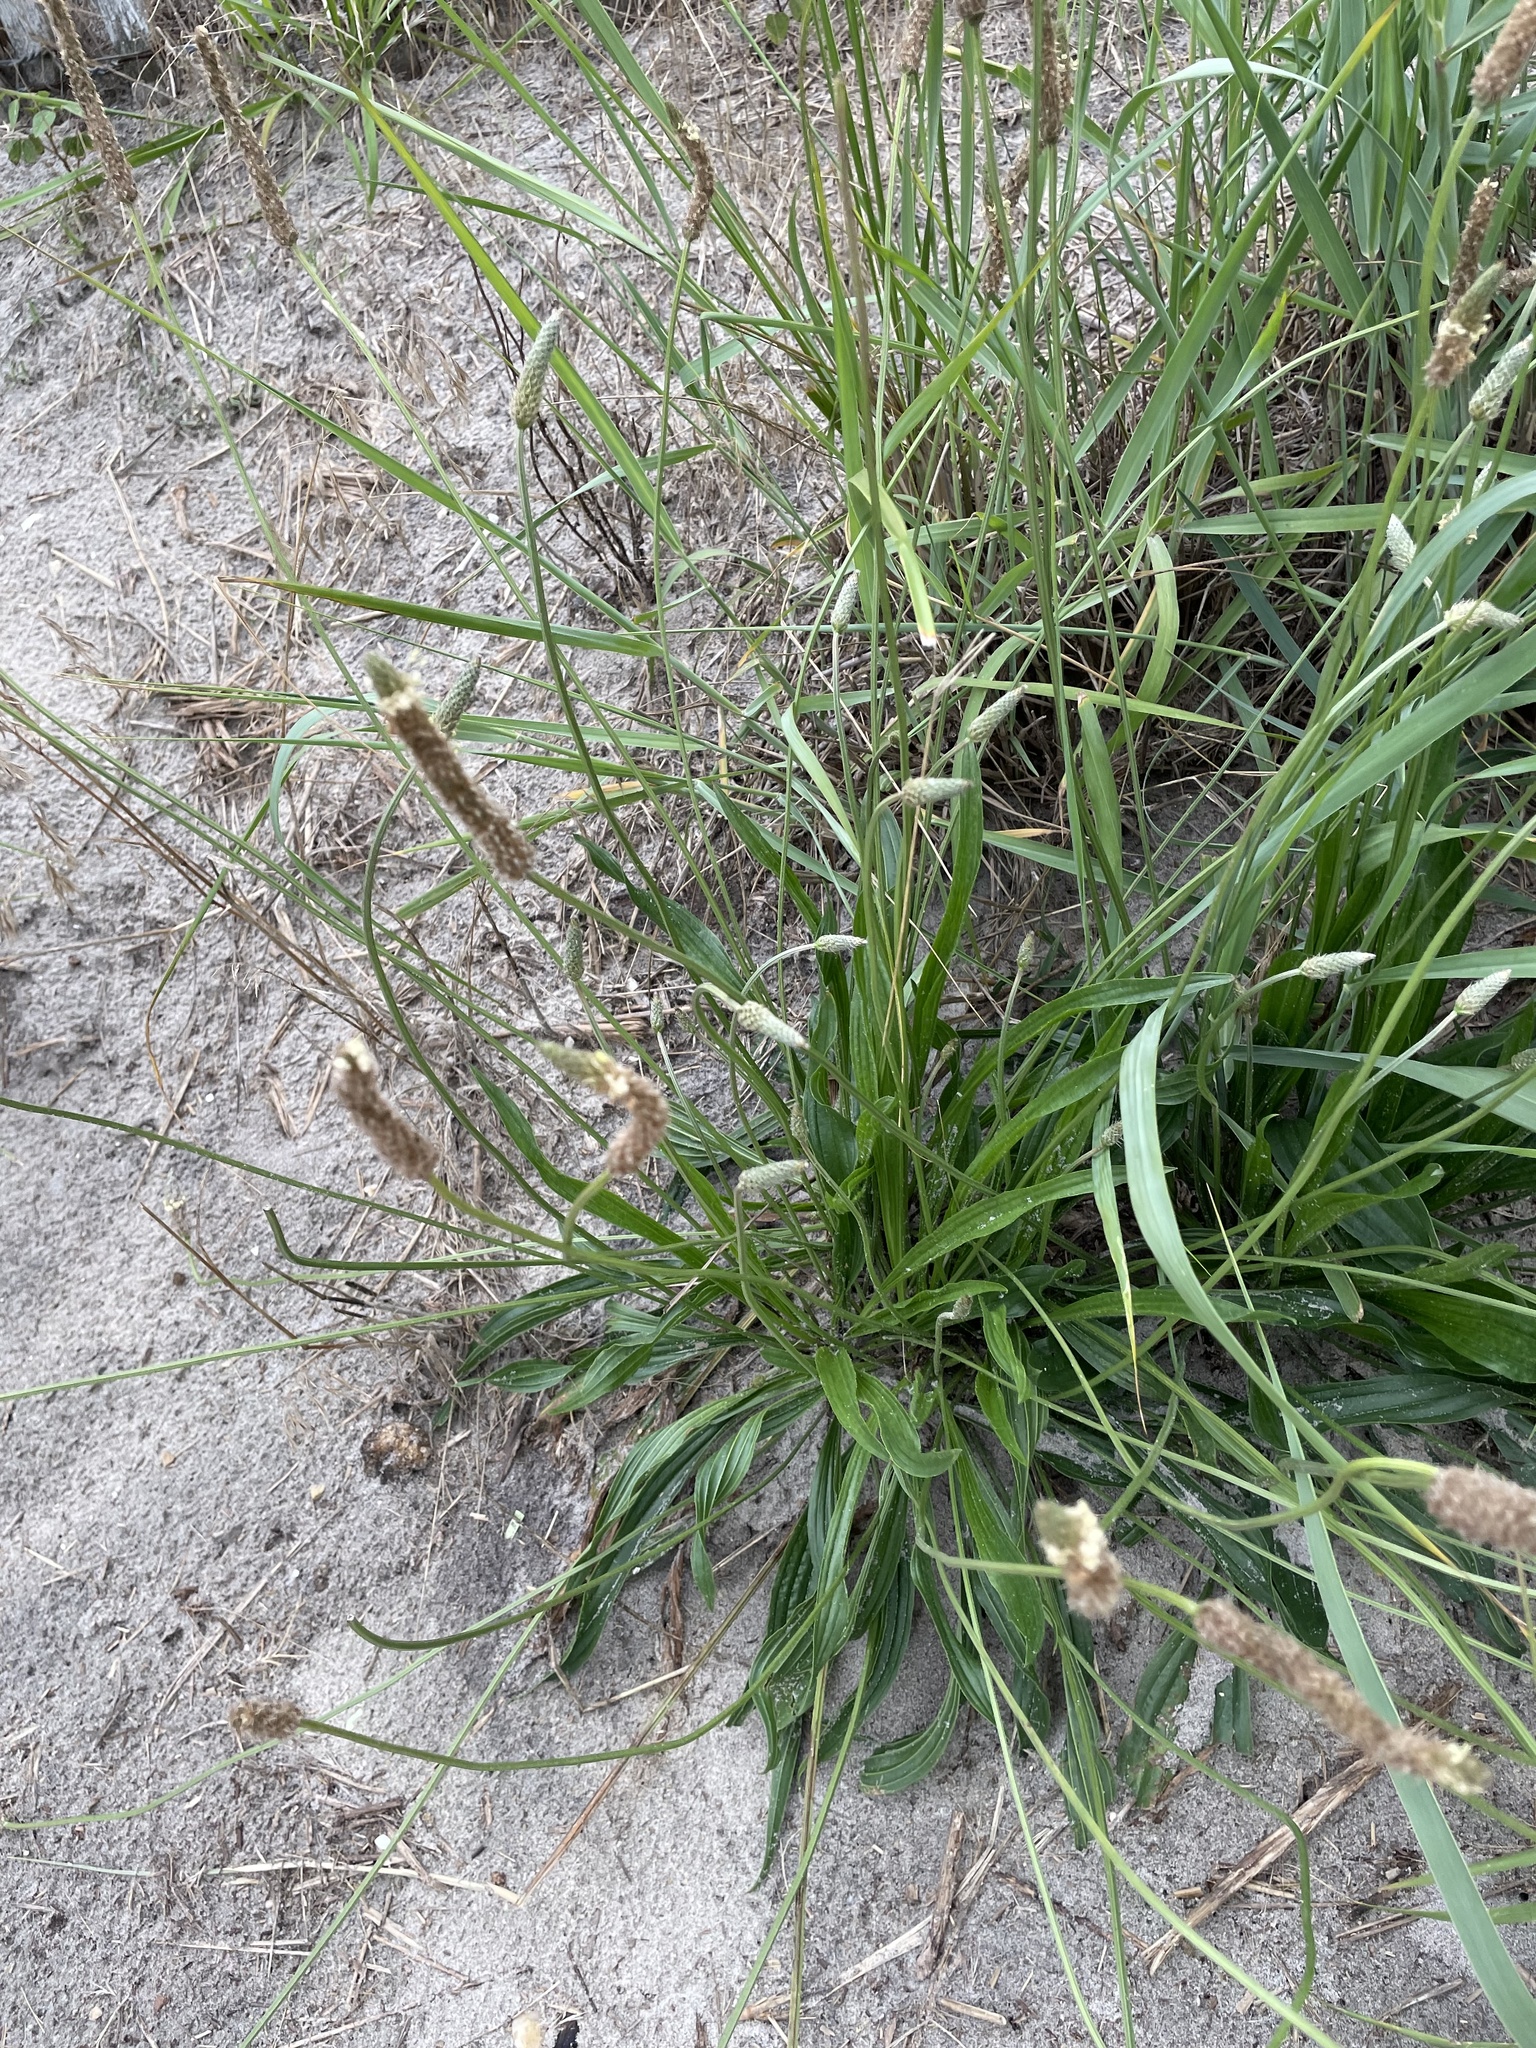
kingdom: Plantae
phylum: Tracheophyta
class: Magnoliopsida
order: Lamiales
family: Plantaginaceae
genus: Plantago
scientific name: Plantago lanceolata
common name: Ribwort plantain
